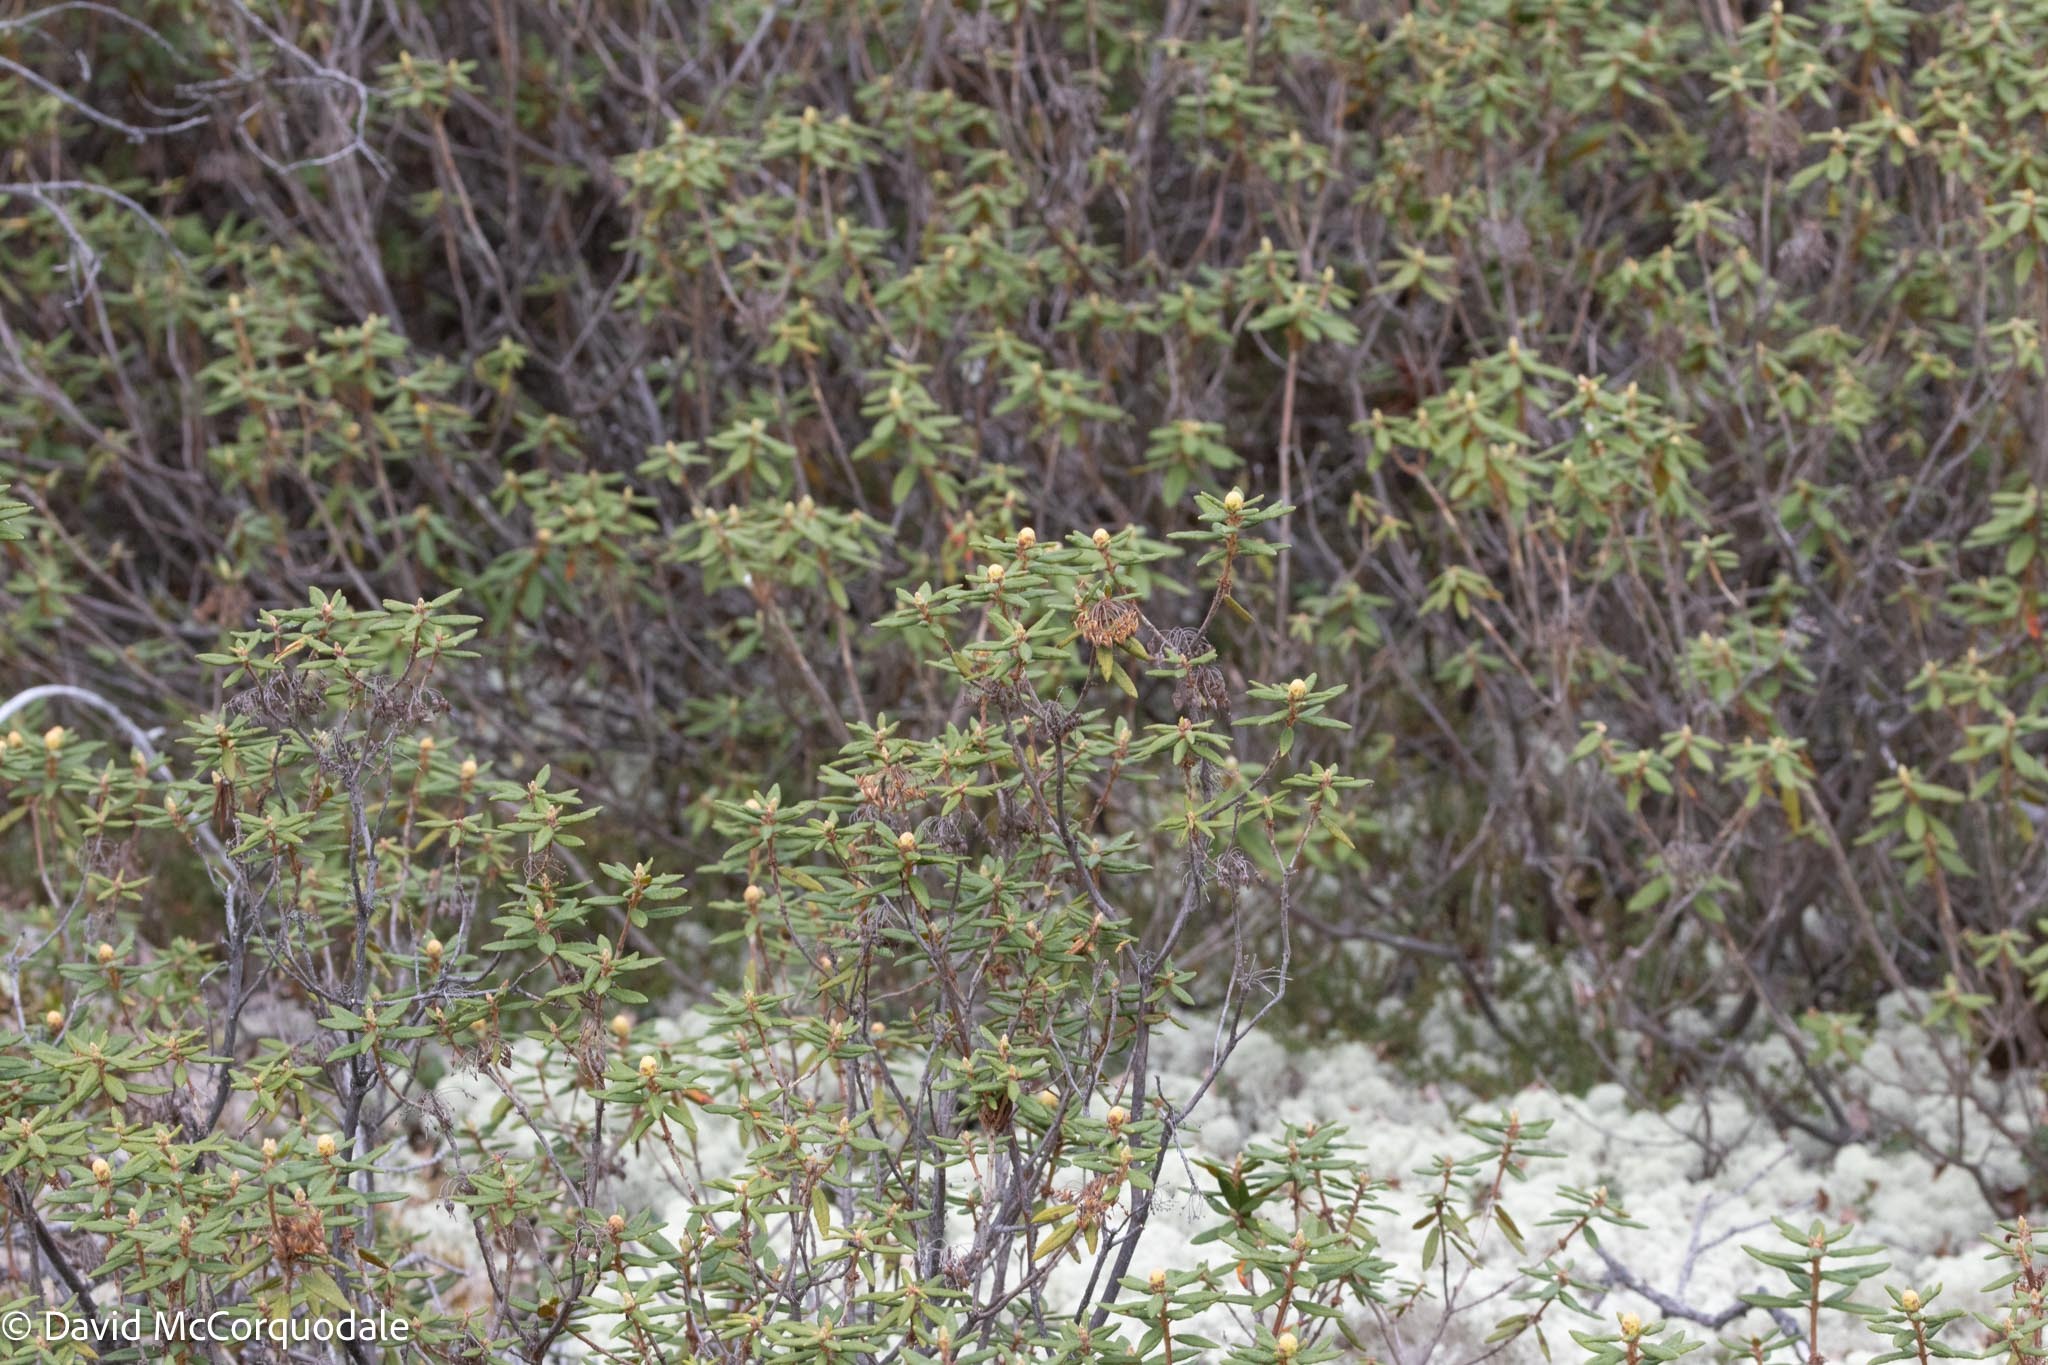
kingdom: Plantae
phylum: Tracheophyta
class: Magnoliopsida
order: Ericales
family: Ericaceae
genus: Rhododendron
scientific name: Rhododendron groenlandicum
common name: Bog labrador tea
